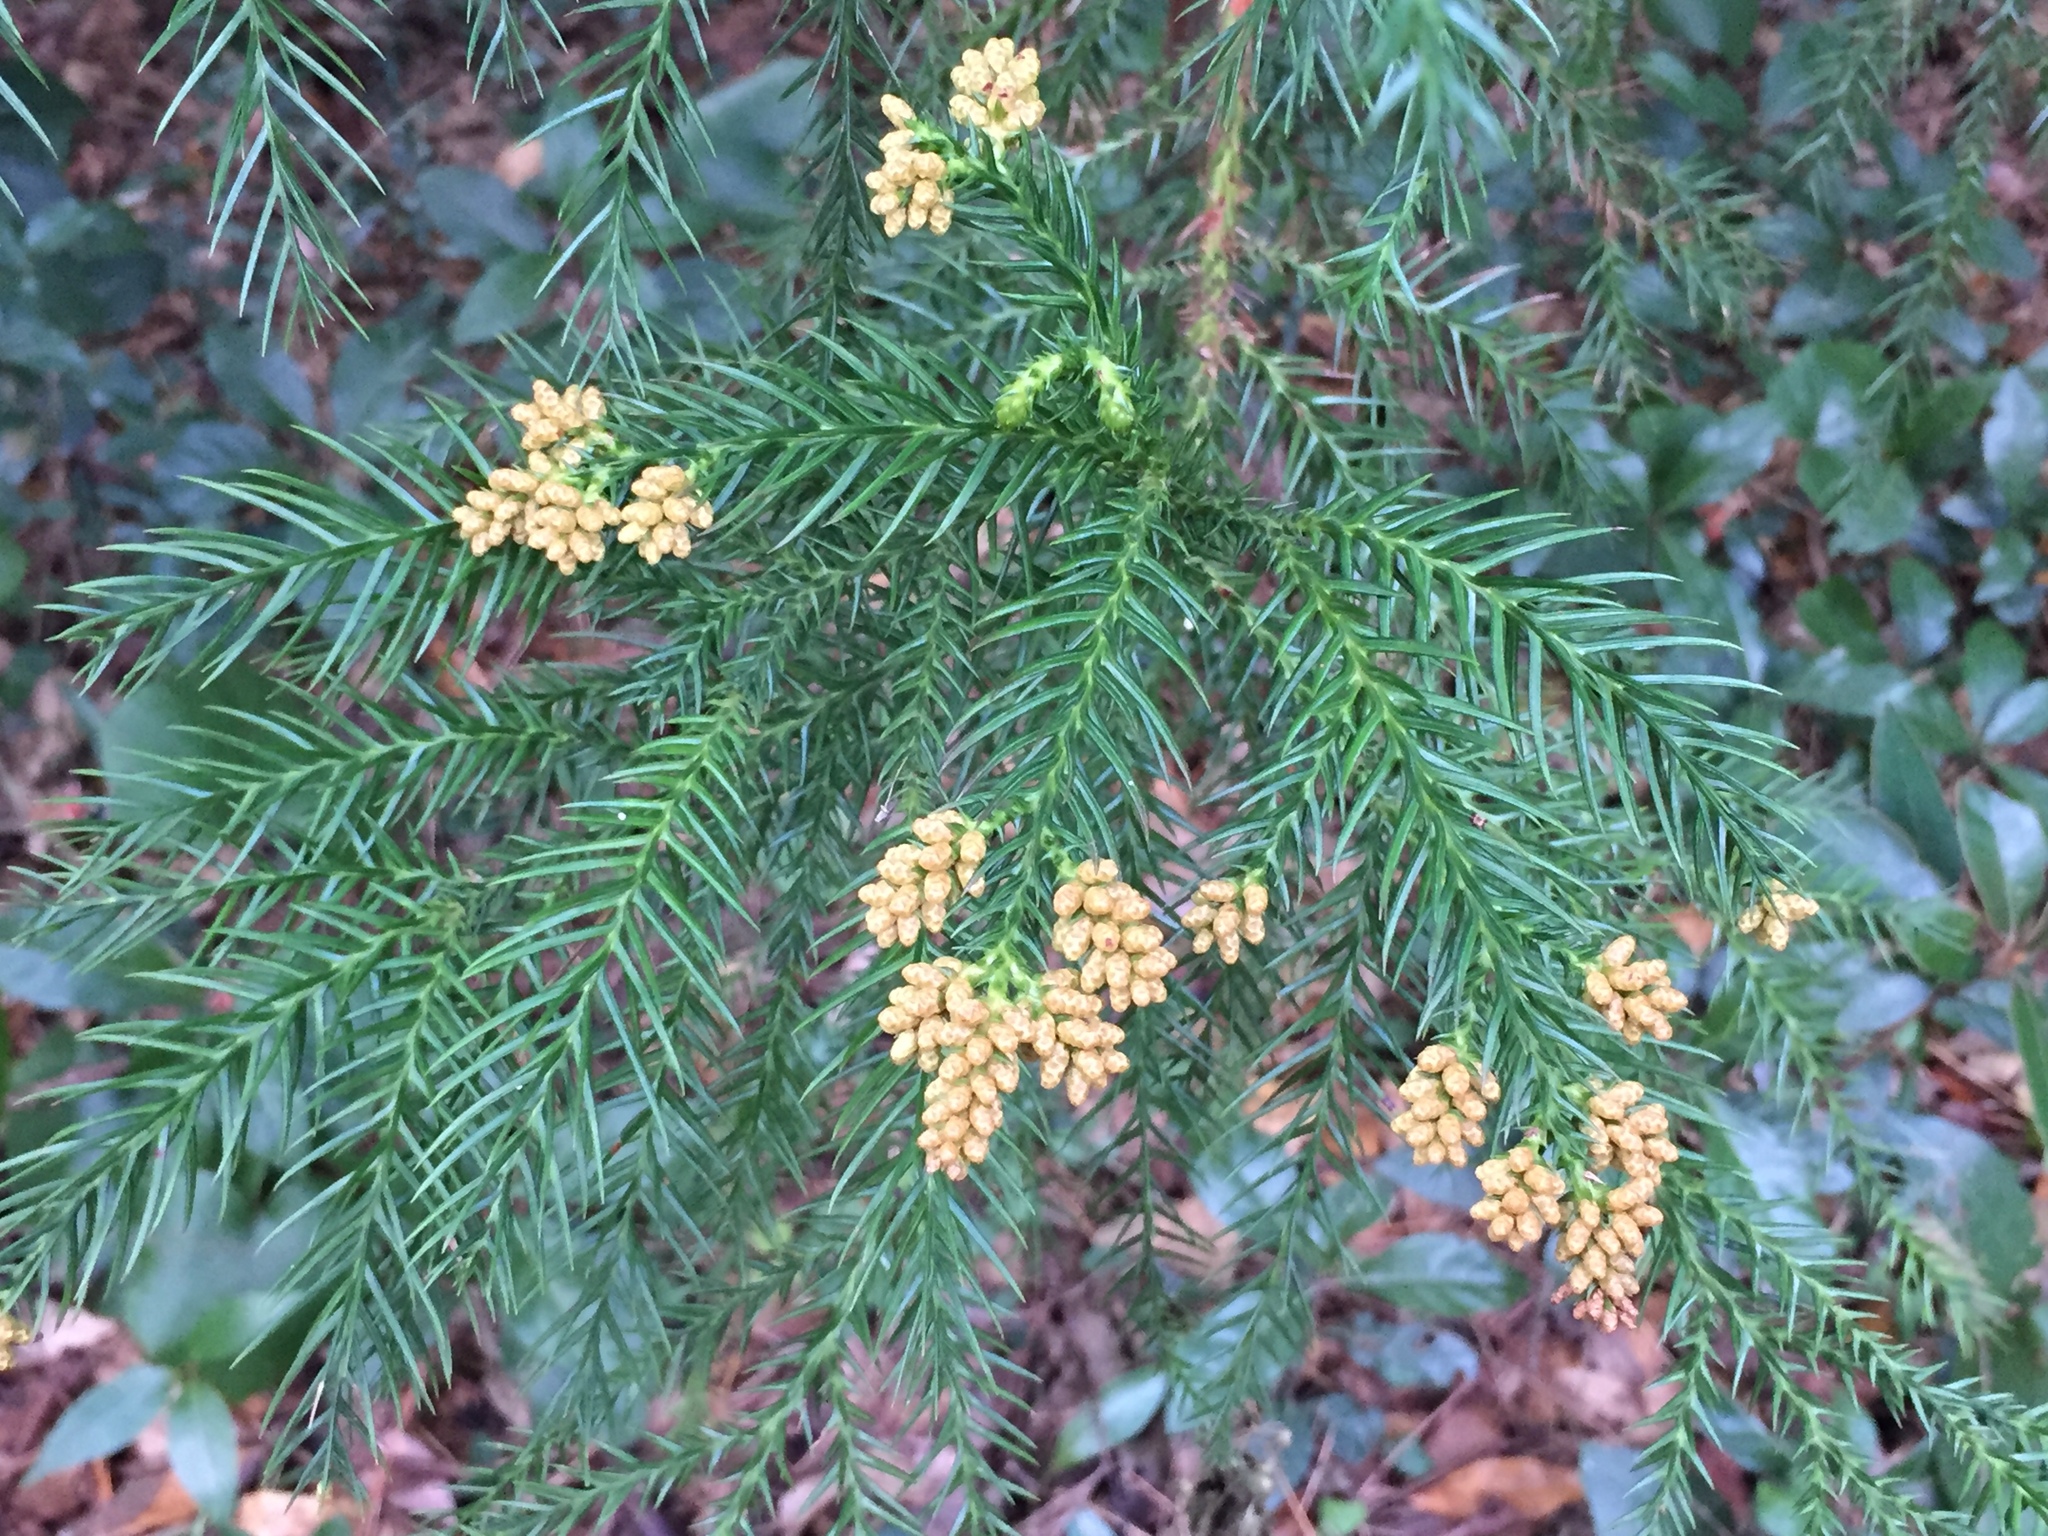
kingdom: Plantae
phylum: Tracheophyta
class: Pinopsida
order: Pinales
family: Cupressaceae
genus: Cryptomeria
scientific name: Cryptomeria japonica
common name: Japanese cedar
